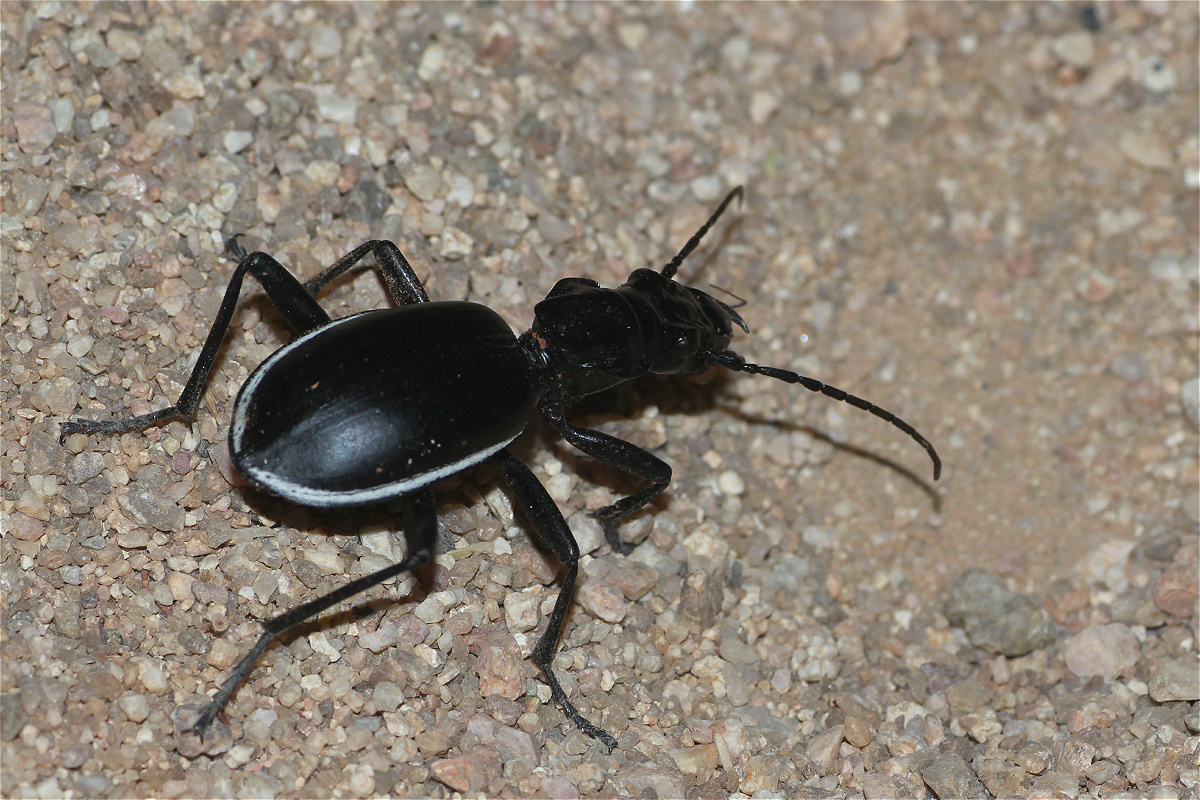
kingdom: Animalia
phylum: Arthropoda
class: Insecta
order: Coleoptera
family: Carabidae
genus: Anthia
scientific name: Anthia cinctipennis
